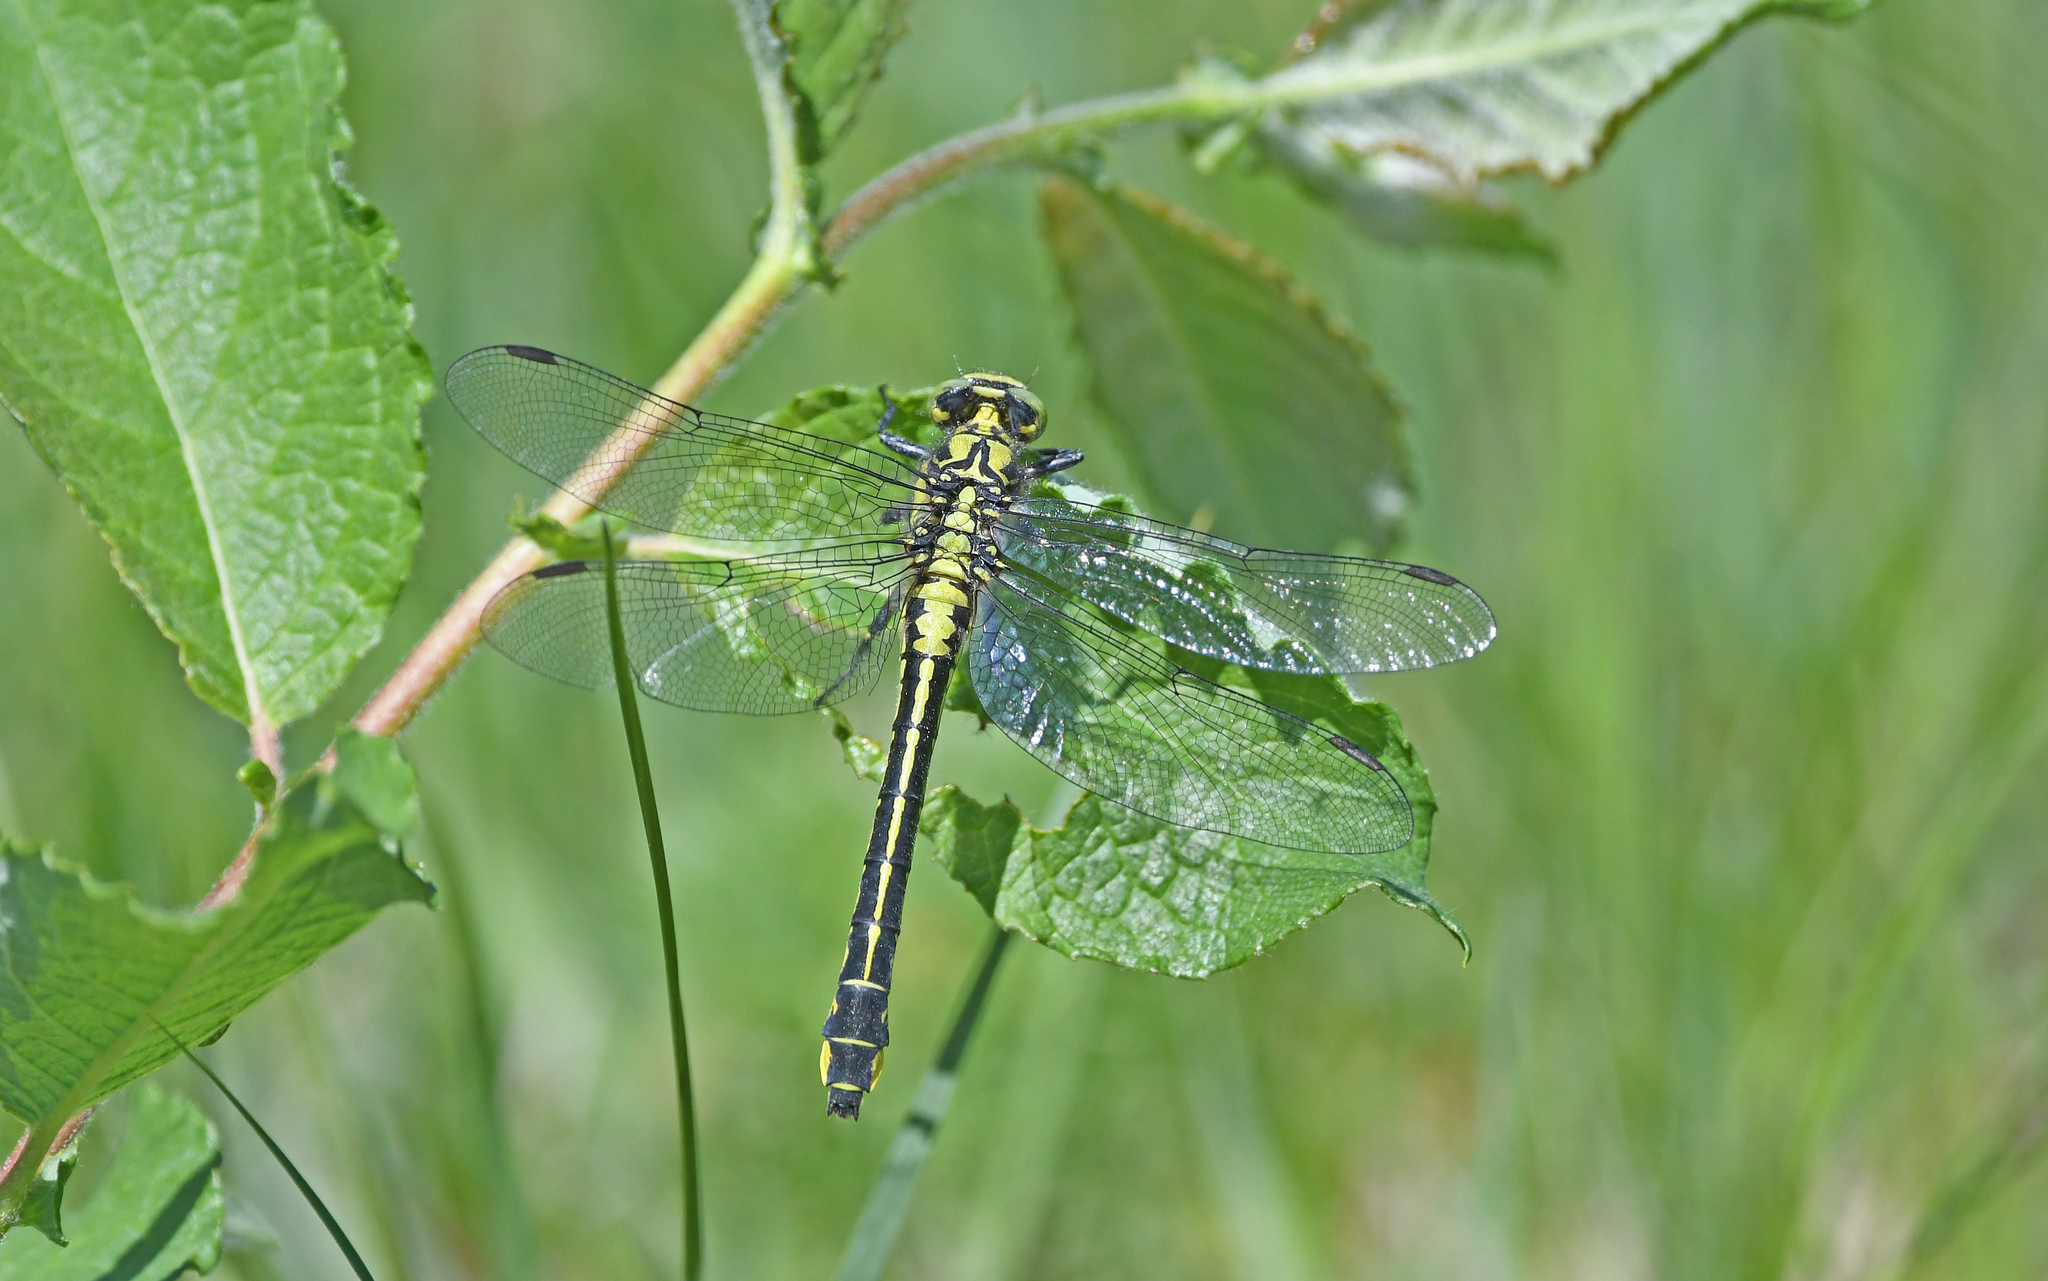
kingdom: Animalia
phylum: Arthropoda
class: Insecta
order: Odonata
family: Gomphidae
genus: Gomphus
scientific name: Gomphus vulgatissimus
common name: Club-tailed dragonfly
